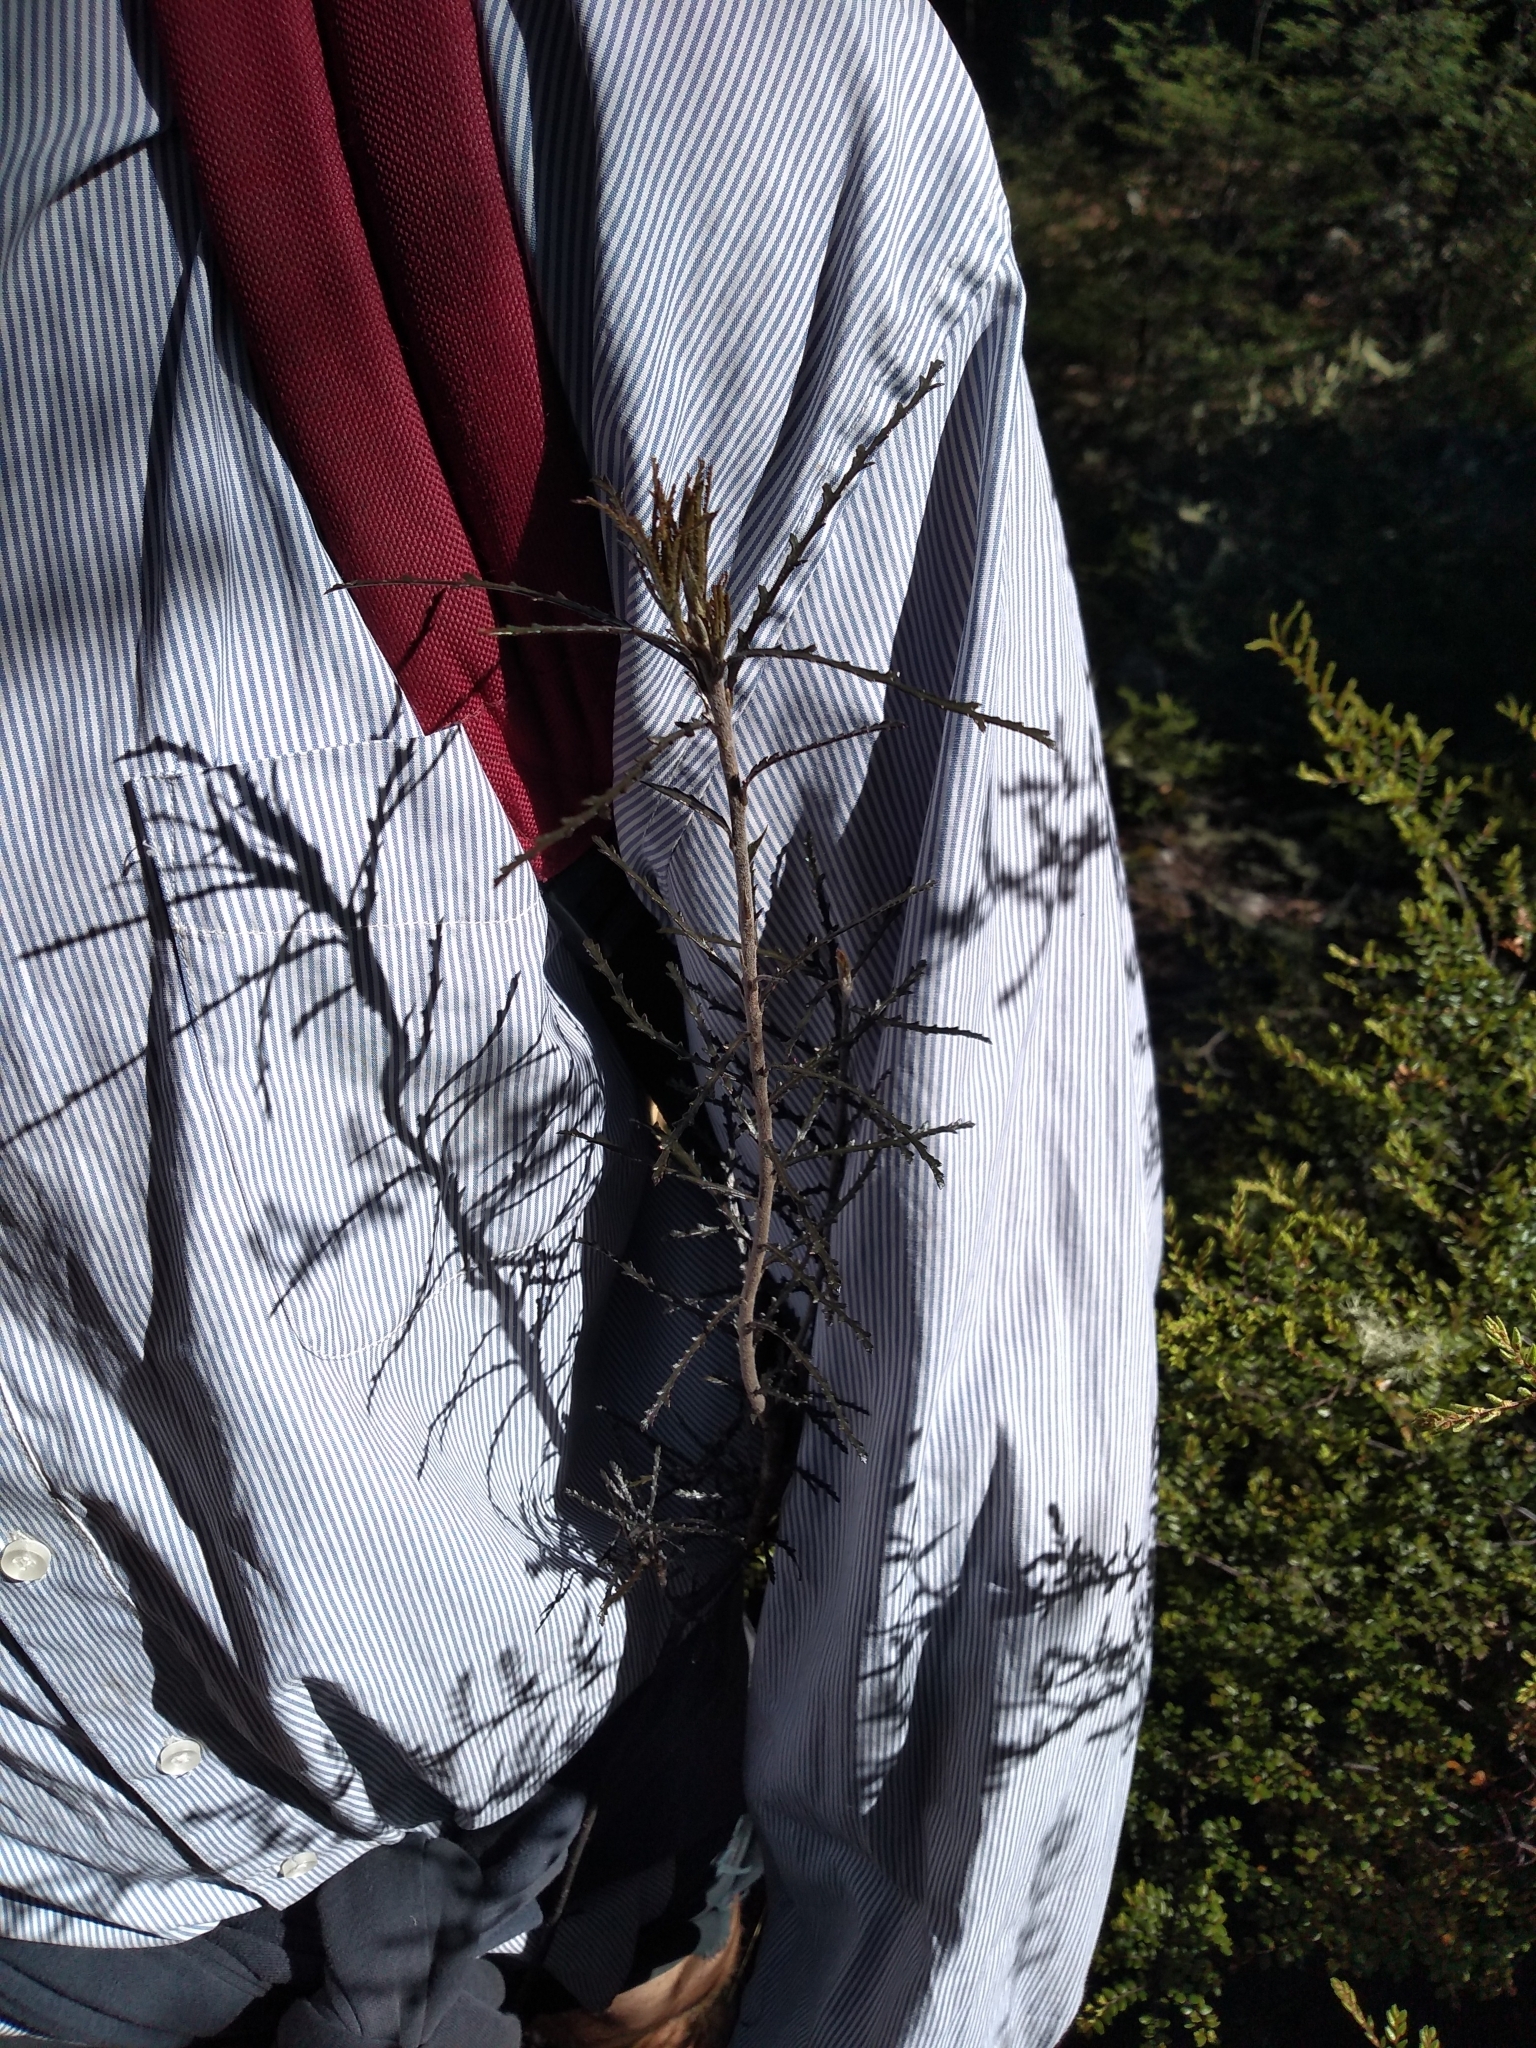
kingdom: Plantae
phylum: Tracheophyta
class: Magnoliopsida
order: Apiales
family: Pittosporaceae
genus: Pittosporum
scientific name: Pittosporum patulum
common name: Pitpat
